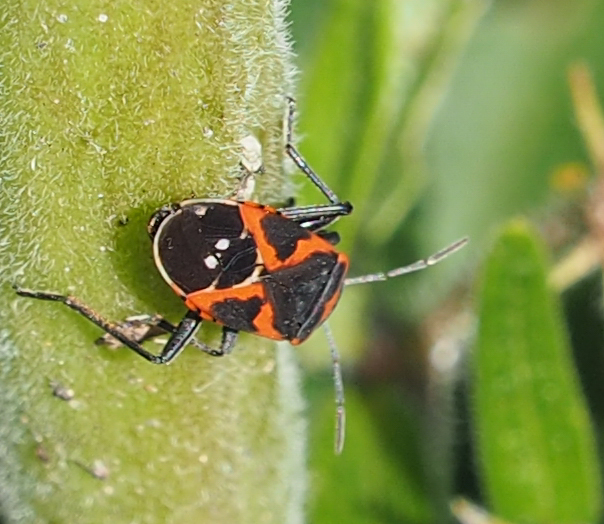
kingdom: Animalia
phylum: Arthropoda
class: Insecta
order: Hemiptera
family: Lygaeidae
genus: Lygaeus
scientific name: Lygaeus kalmii
